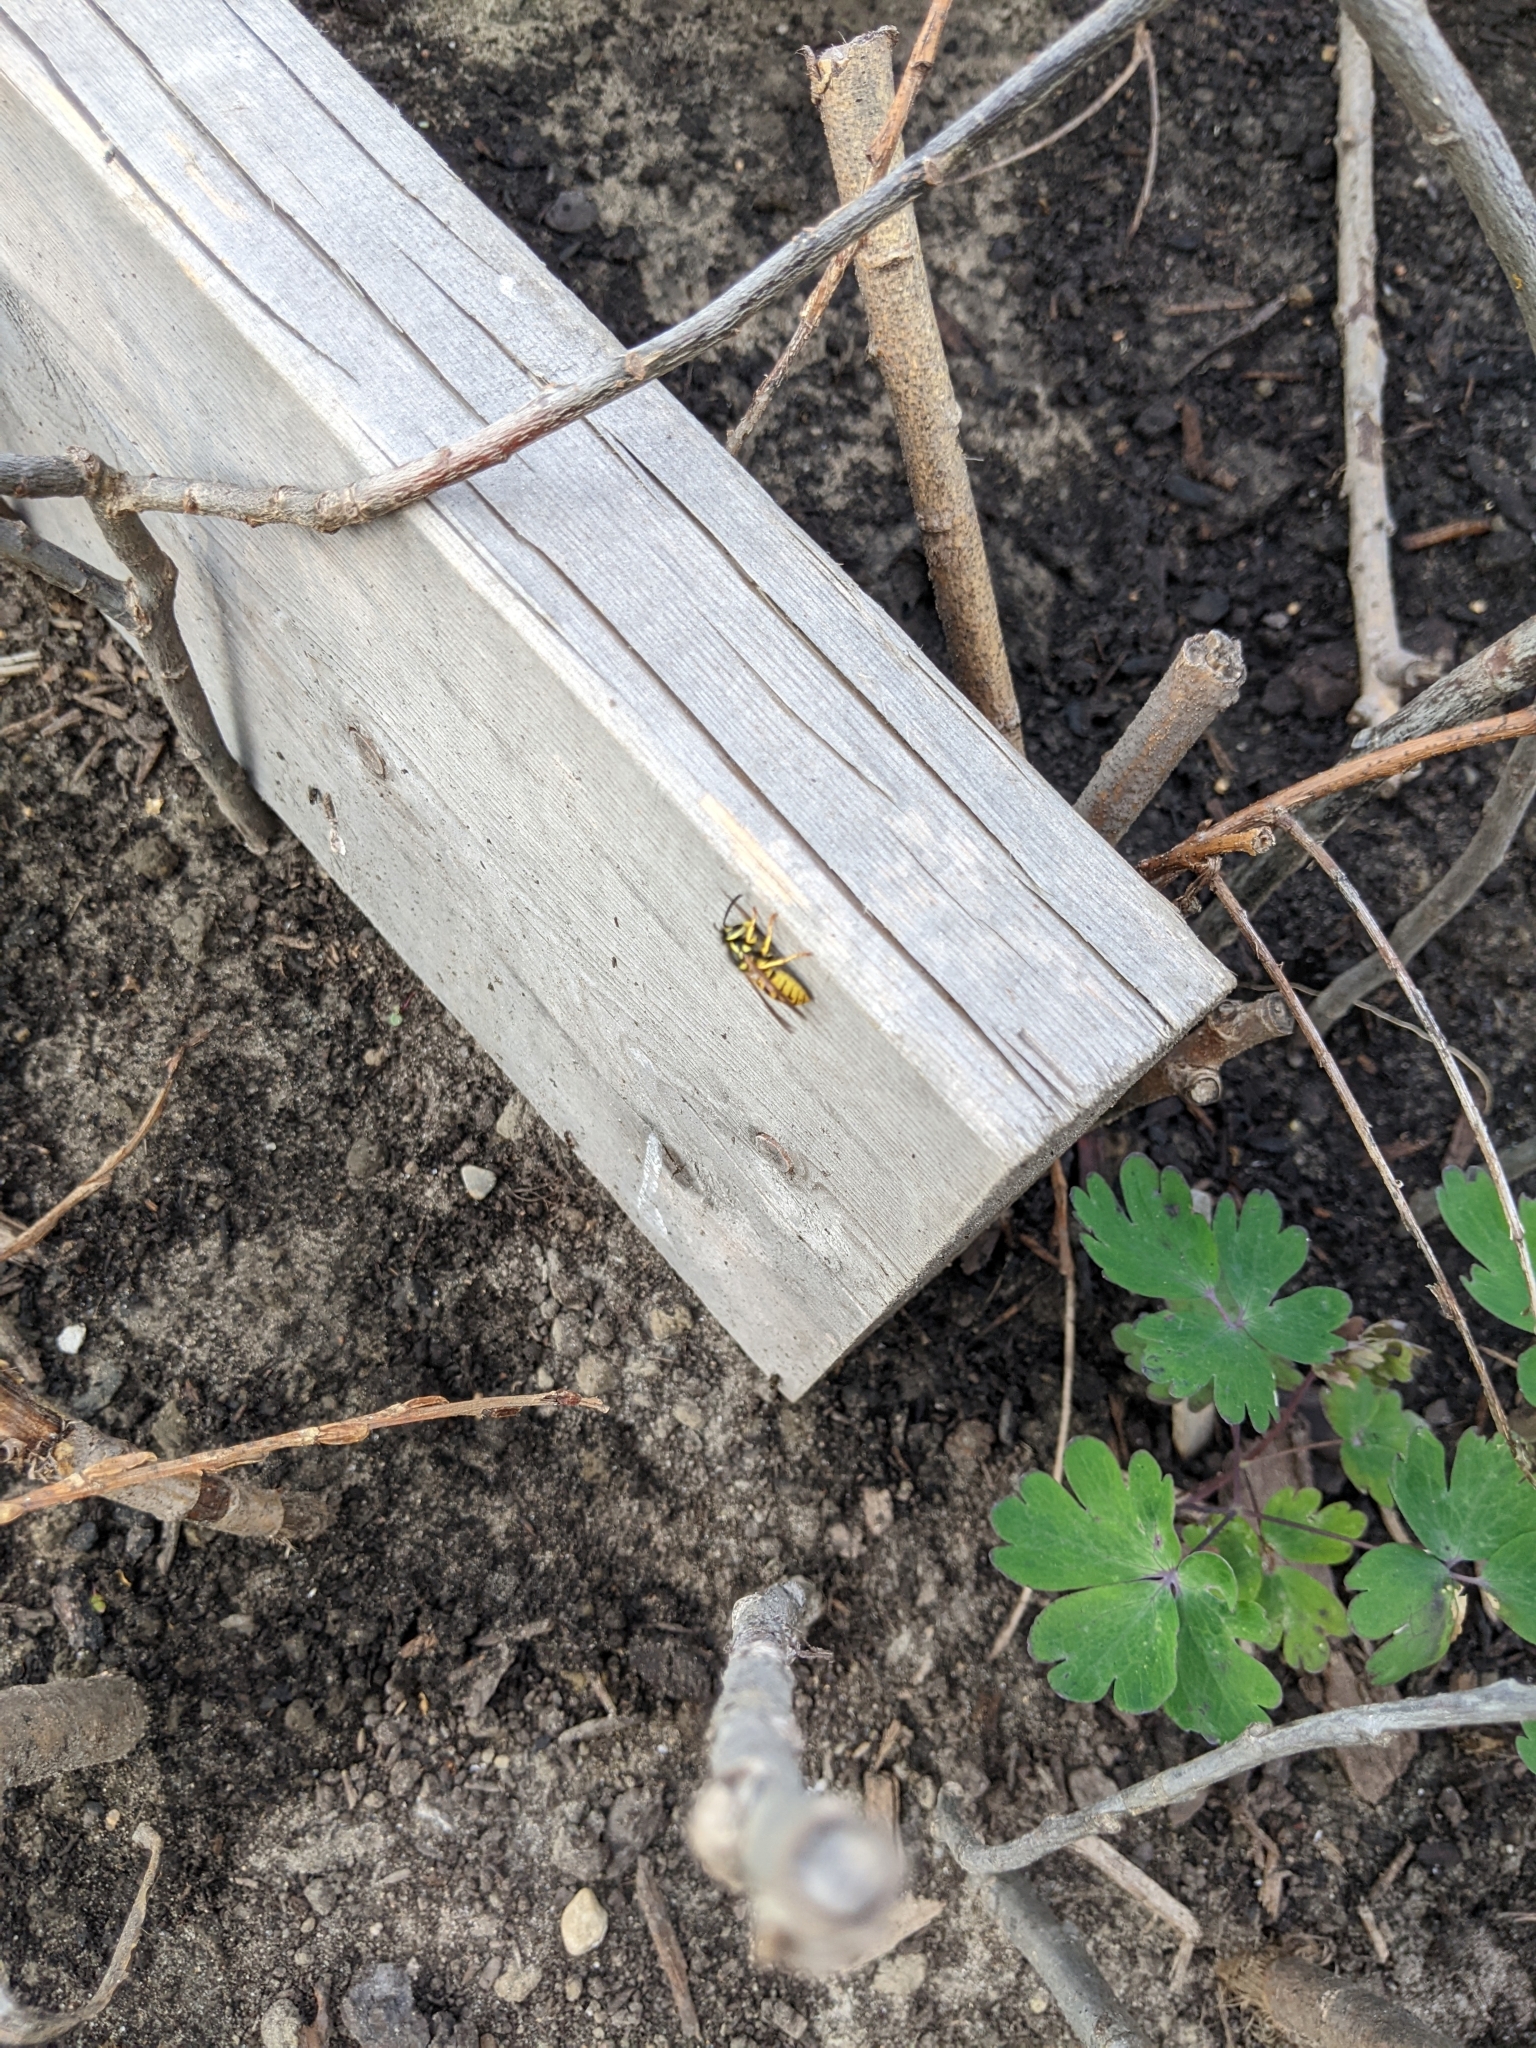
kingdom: Animalia
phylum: Arthropoda
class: Insecta
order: Hymenoptera
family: Vespidae
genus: Vespula
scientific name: Vespula germanica
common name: German wasp
